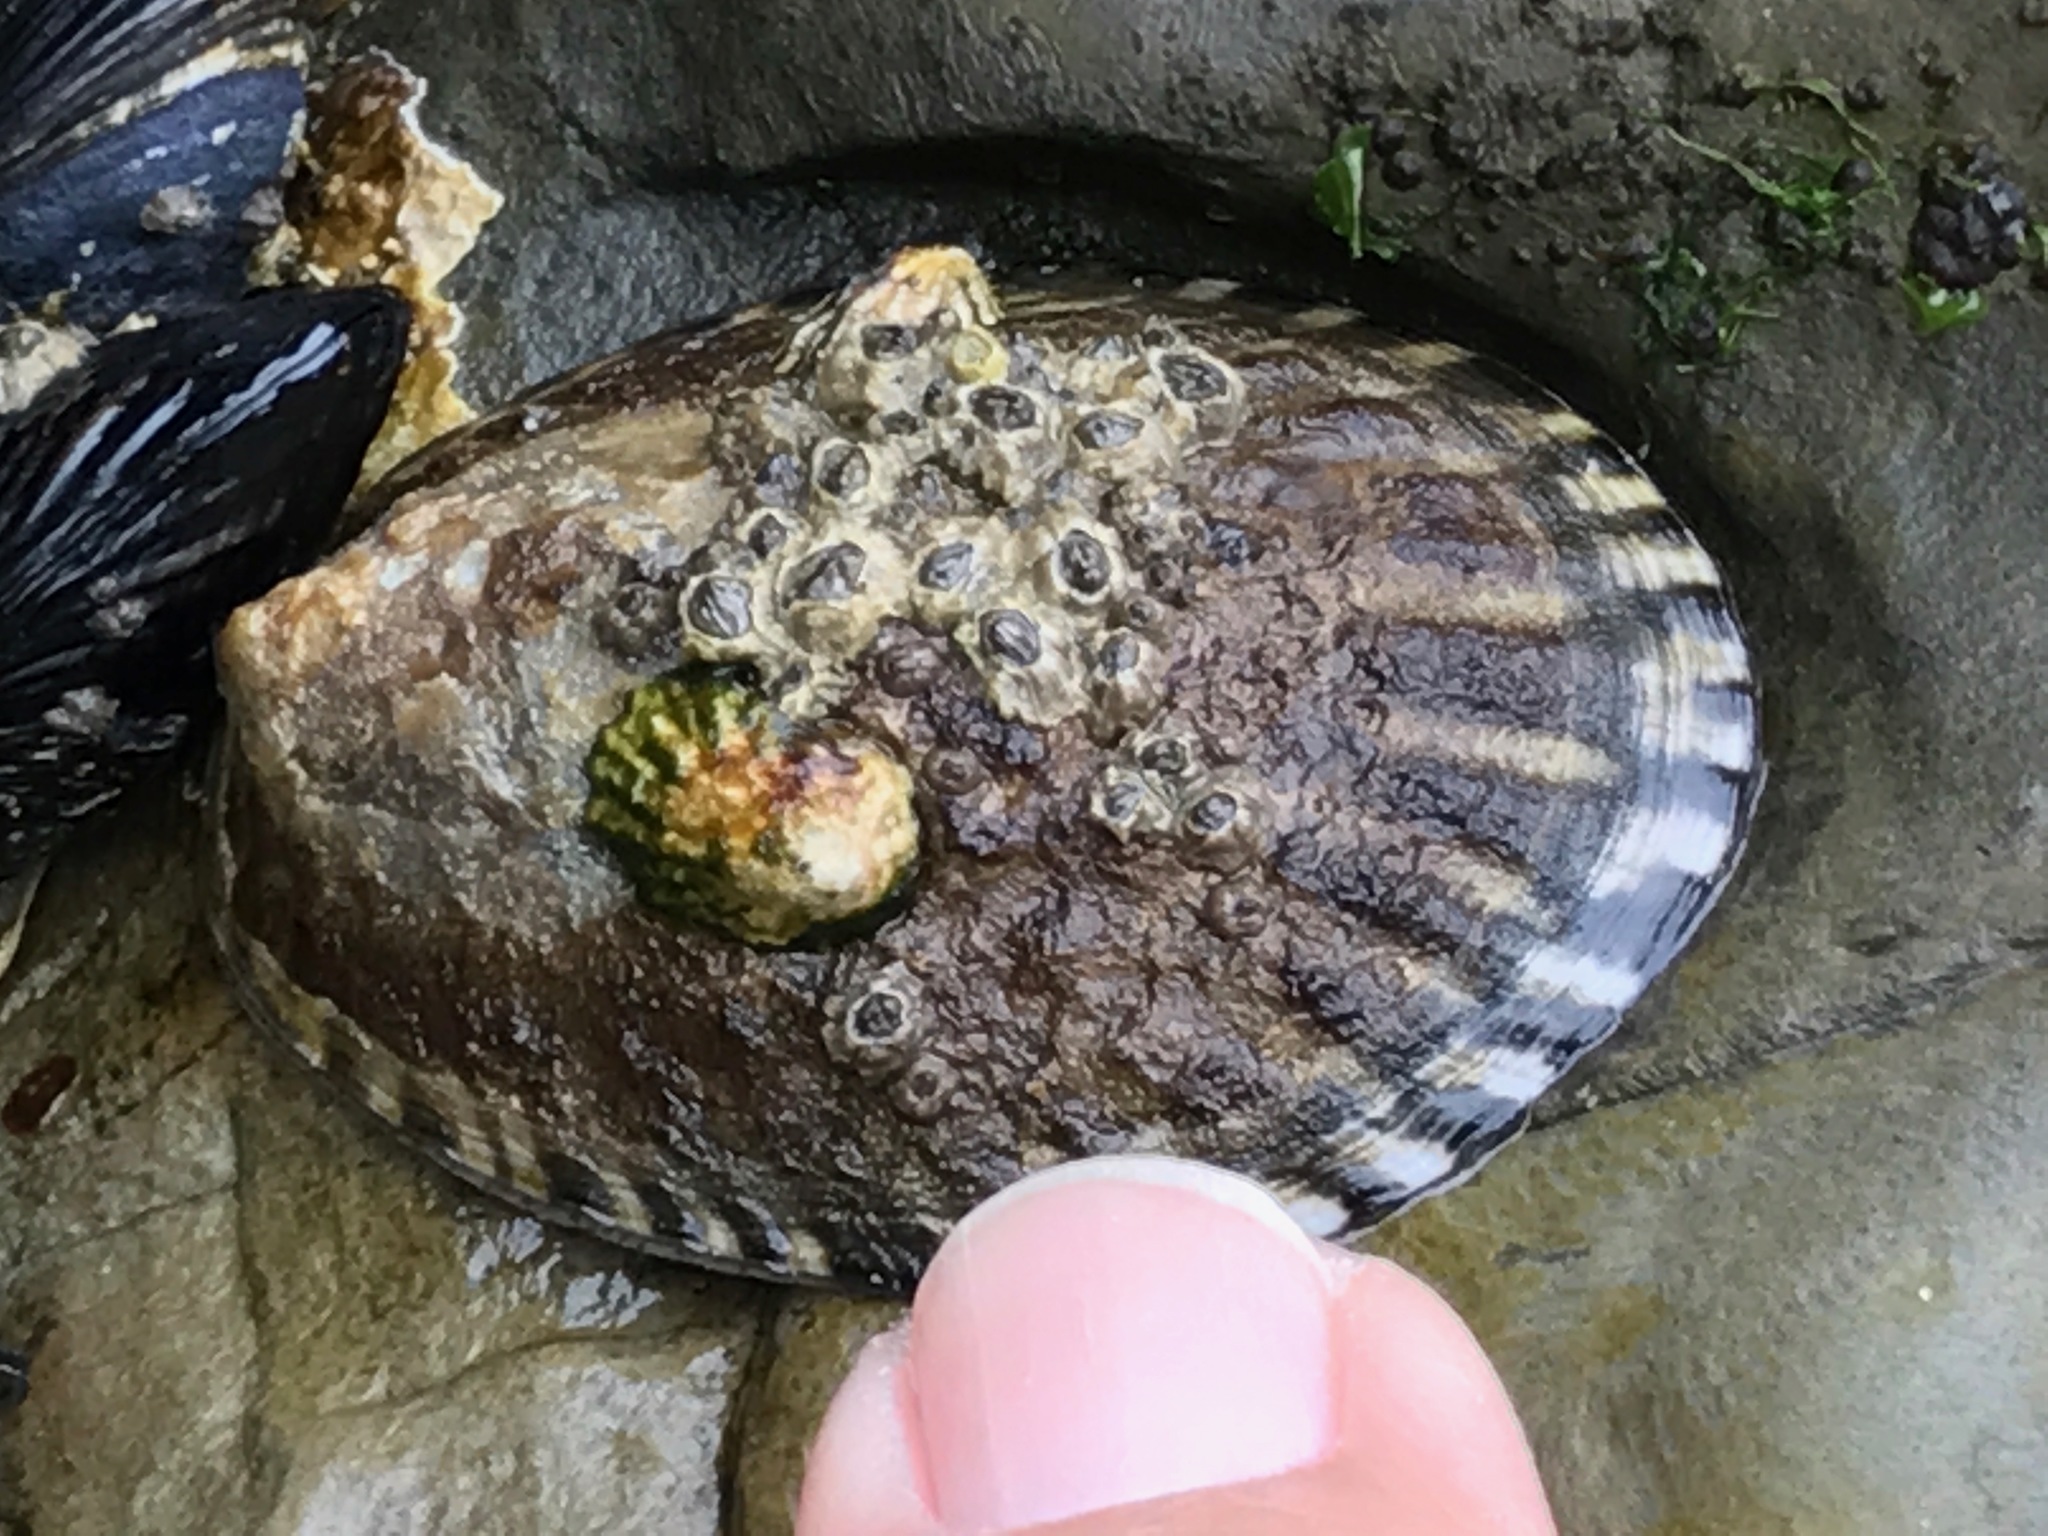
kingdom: Animalia
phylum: Mollusca
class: Gastropoda
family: Lottiidae
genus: Lottia
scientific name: Lottia gigantea
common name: Owl limpet
